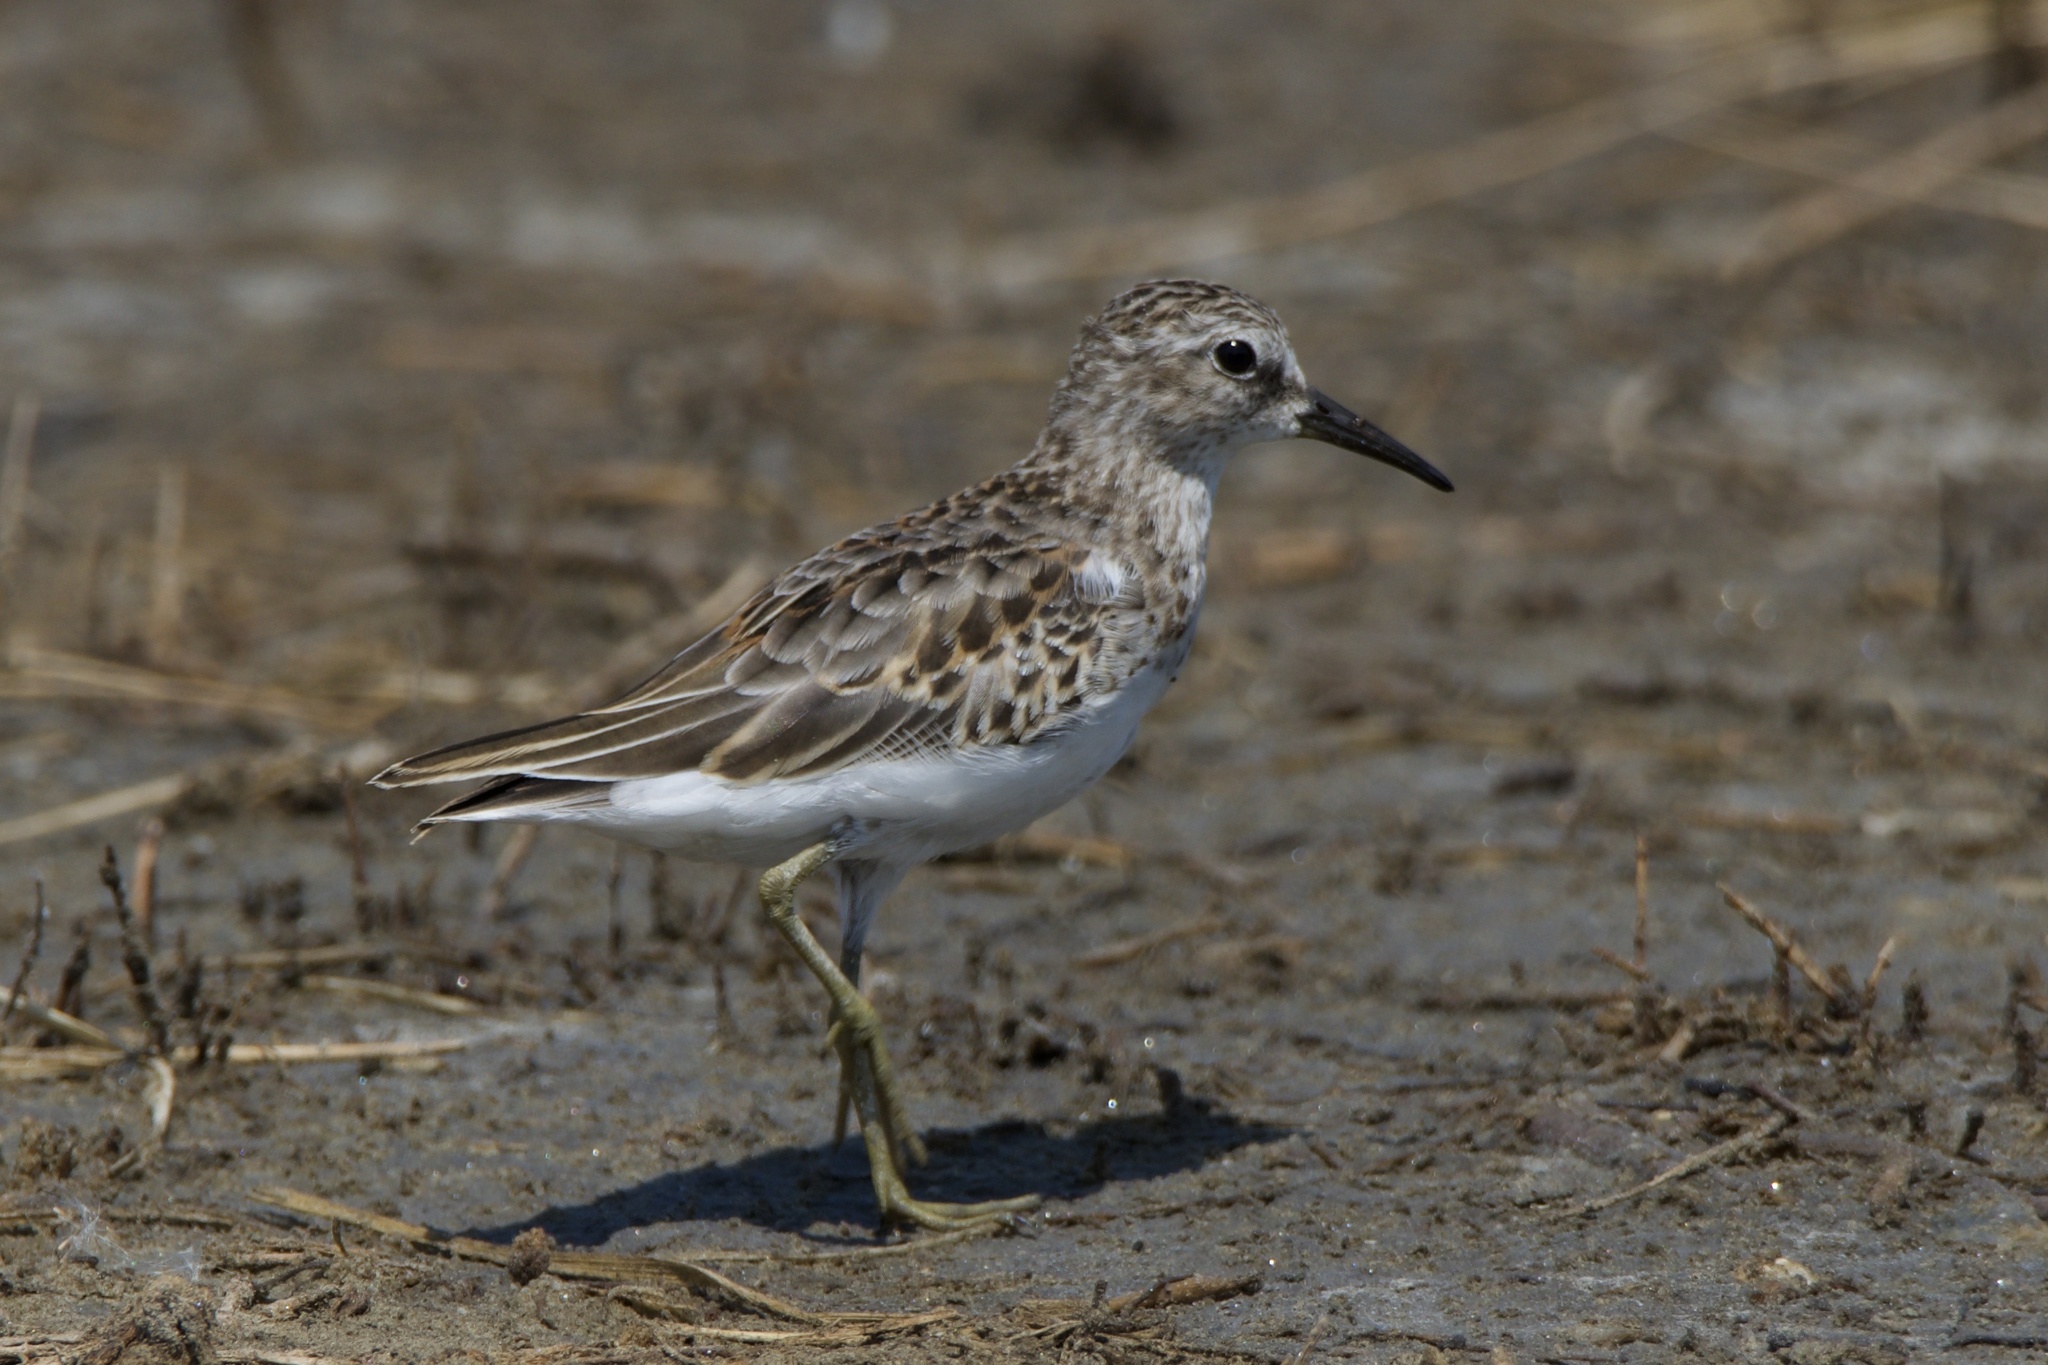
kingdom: Animalia
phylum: Chordata
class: Aves
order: Charadriiformes
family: Scolopacidae
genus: Calidris
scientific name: Calidris minutilla
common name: Least sandpiper
